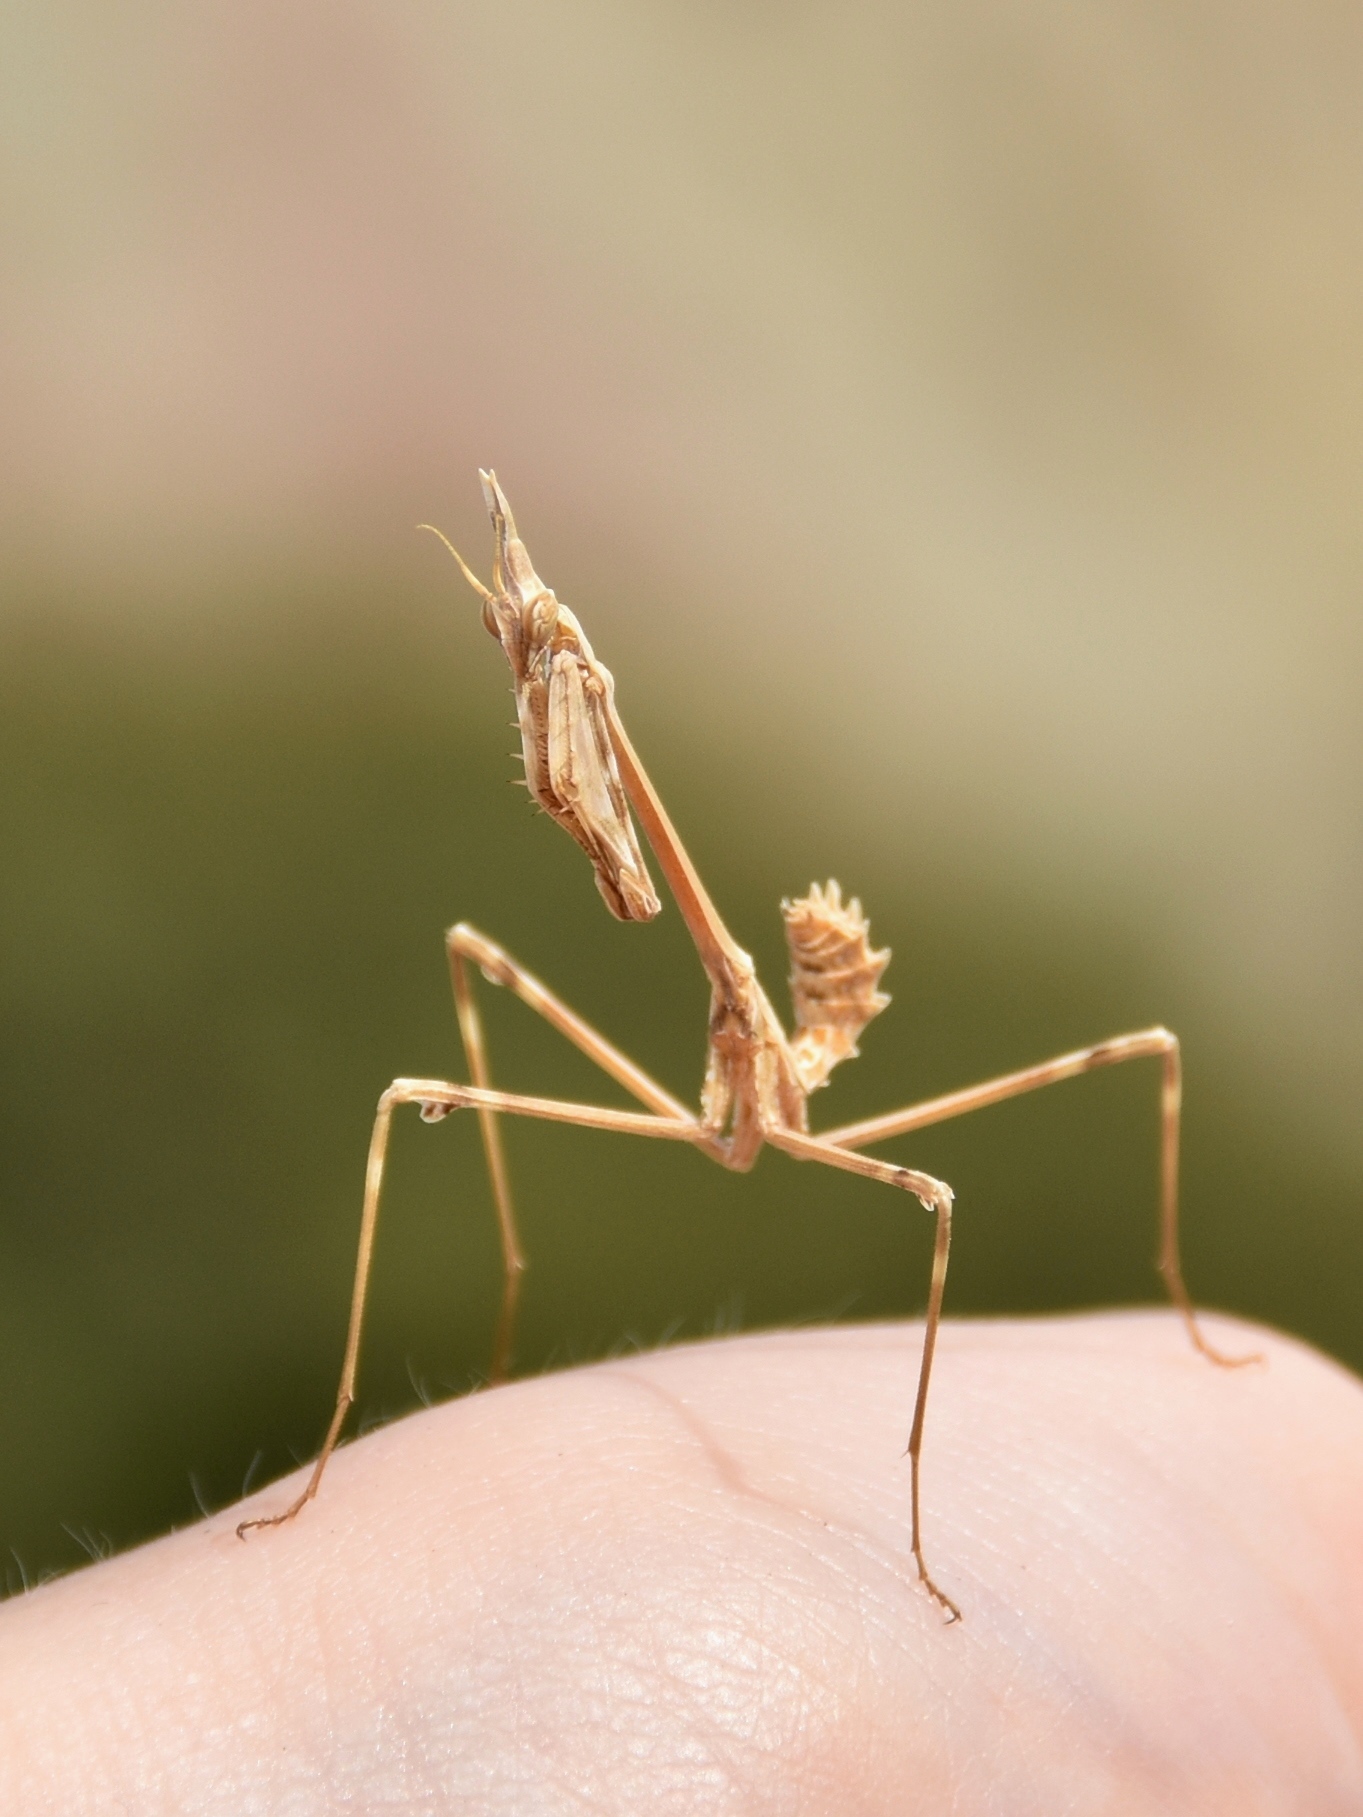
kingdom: Animalia
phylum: Arthropoda
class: Insecta
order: Mantodea
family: Empusidae
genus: Empusa
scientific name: Empusa fasciata
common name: Devil's mare
